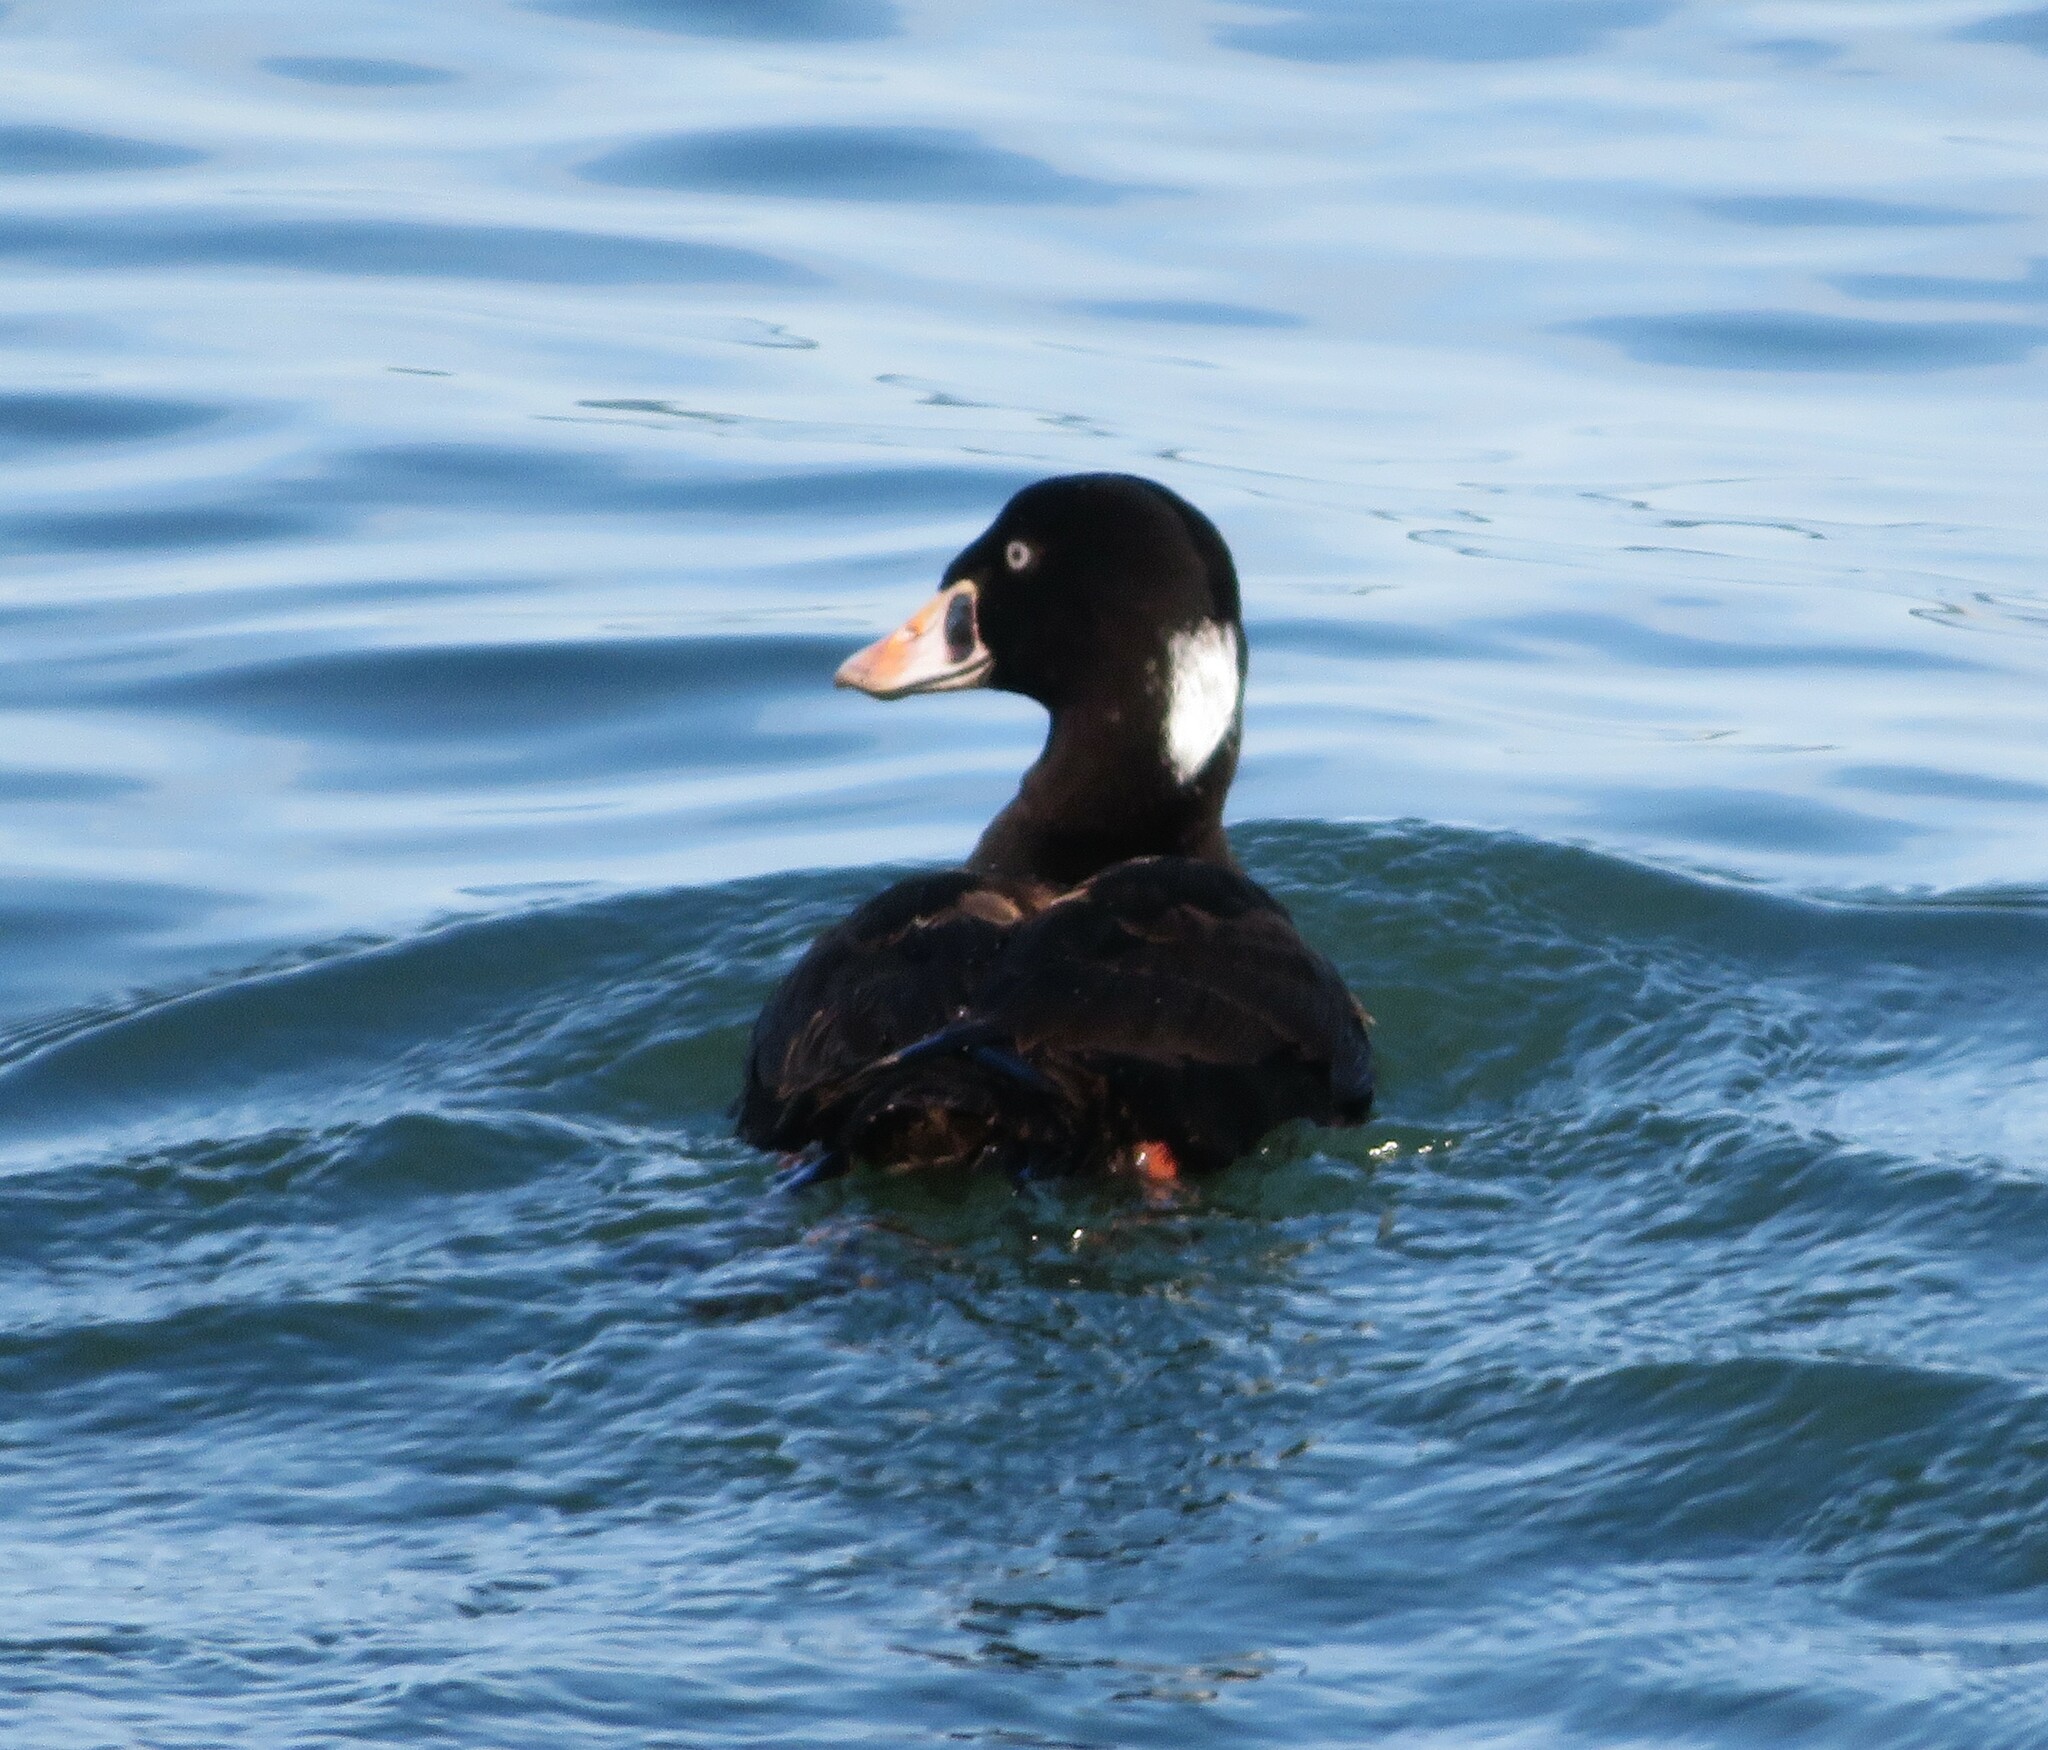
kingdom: Animalia
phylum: Chordata
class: Aves
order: Anseriformes
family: Anatidae
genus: Melanitta
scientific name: Melanitta perspicillata
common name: Surf scoter
